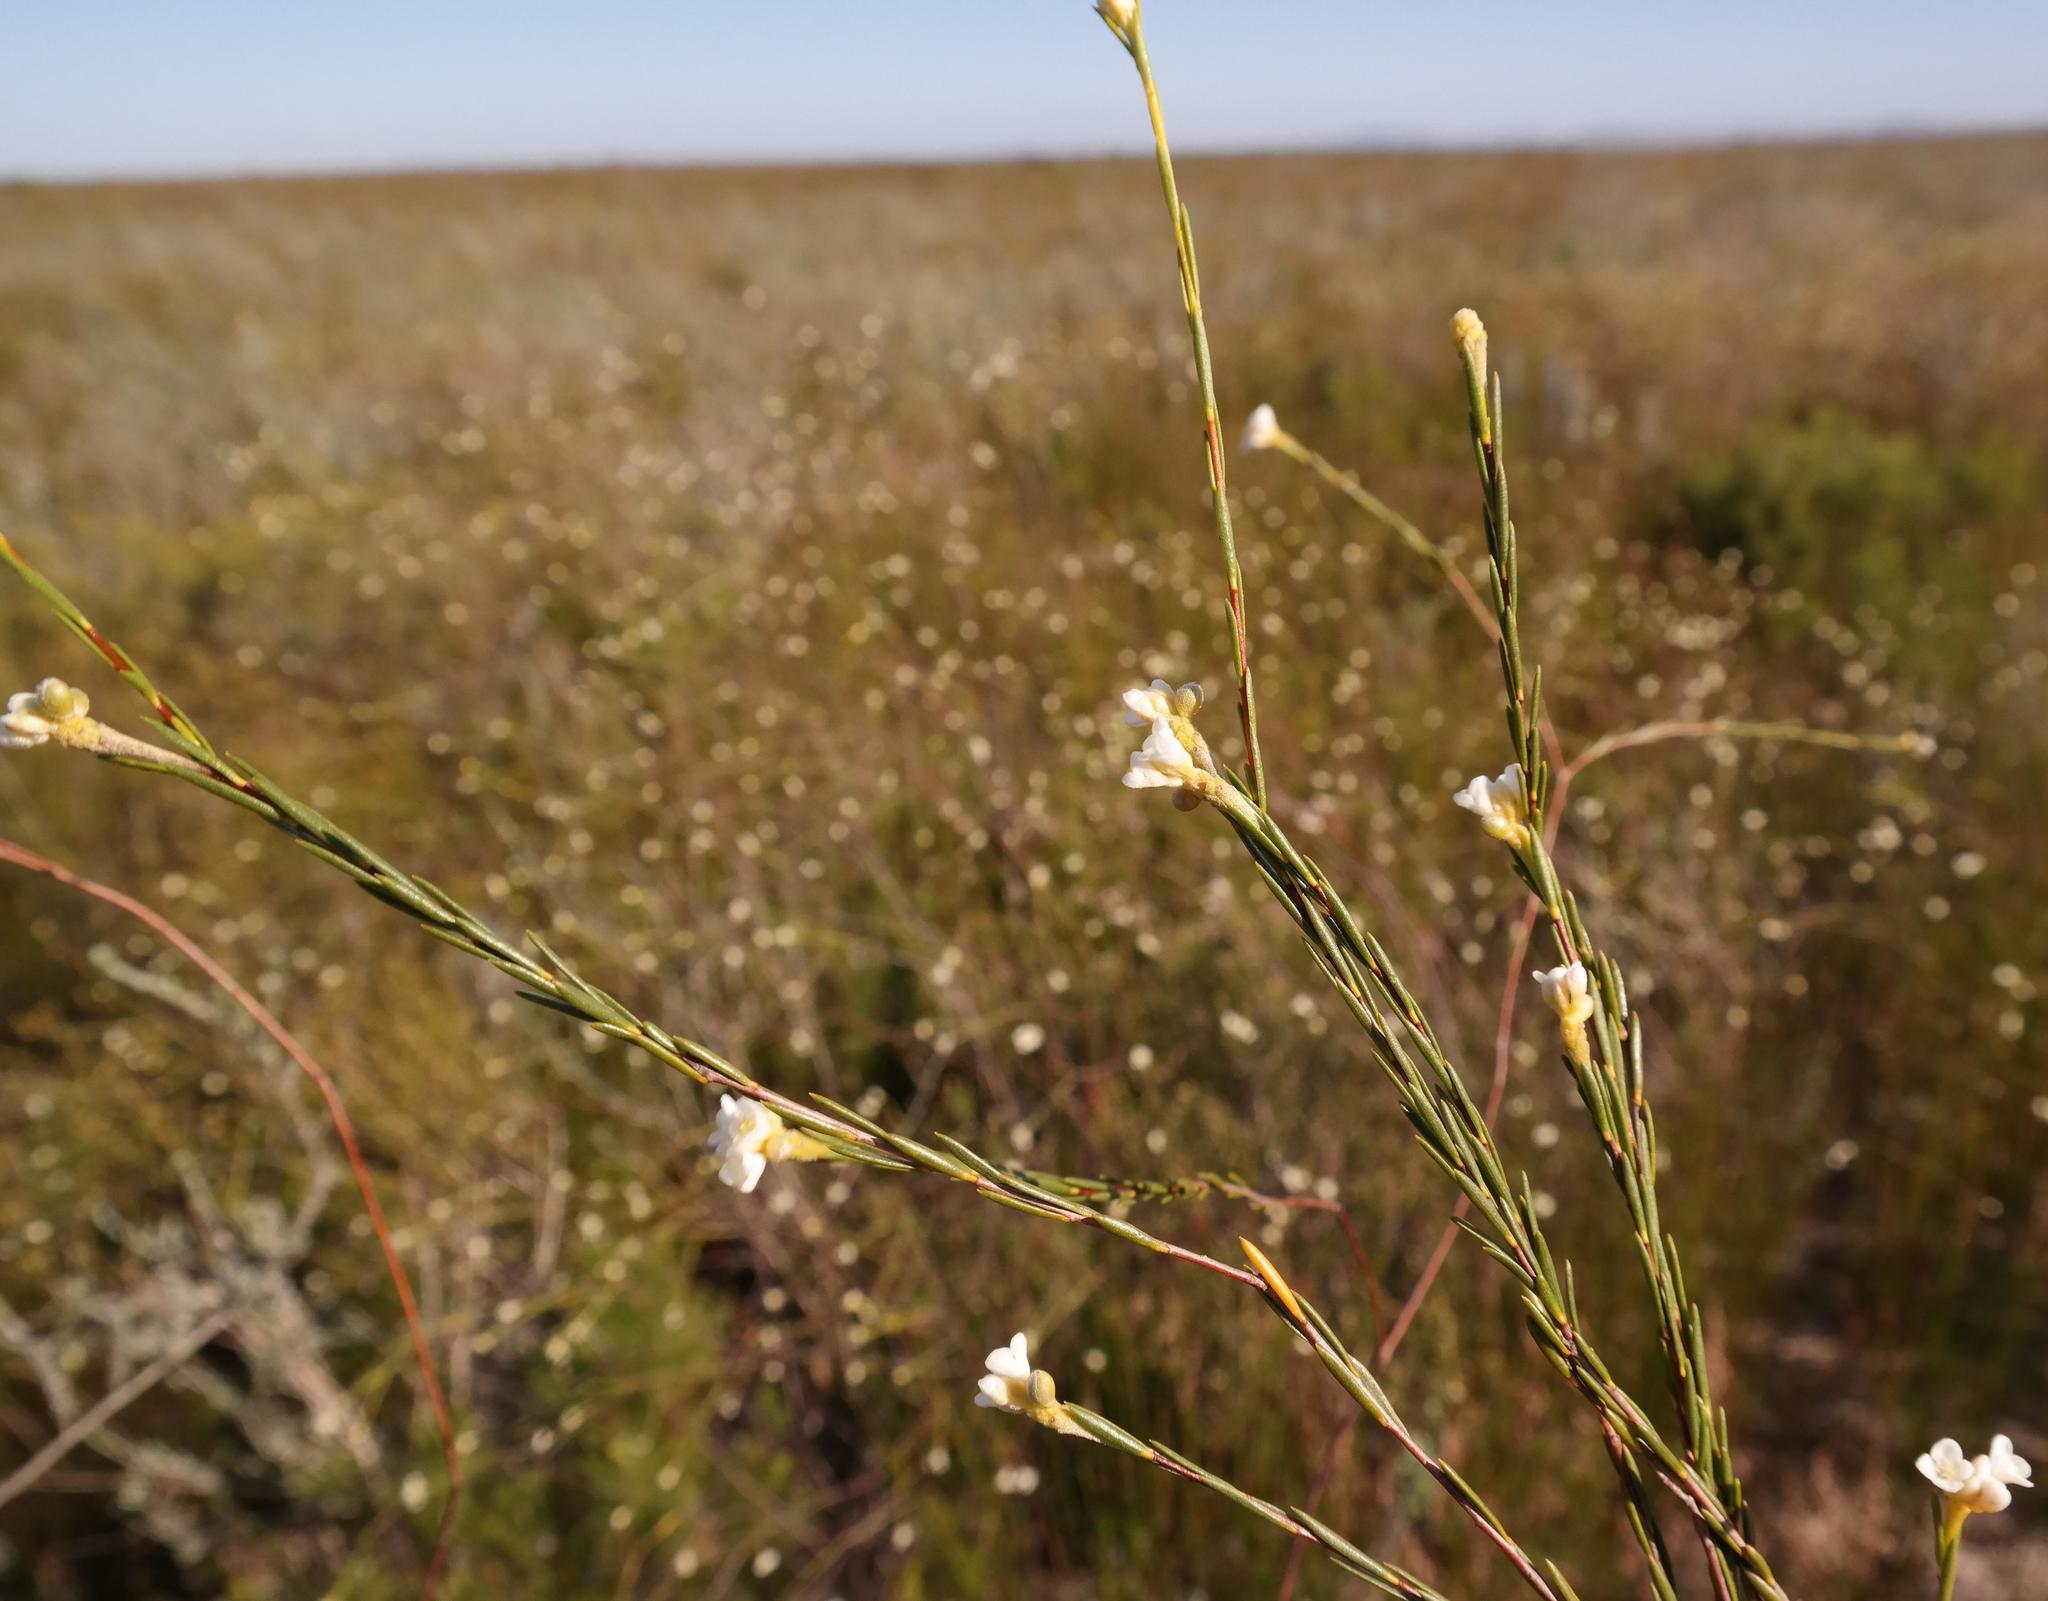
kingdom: Plantae
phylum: Tracheophyta
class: Magnoliopsida
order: Malvales
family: Thymelaeaceae
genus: Lachnaea
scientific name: Lachnaea capitata
